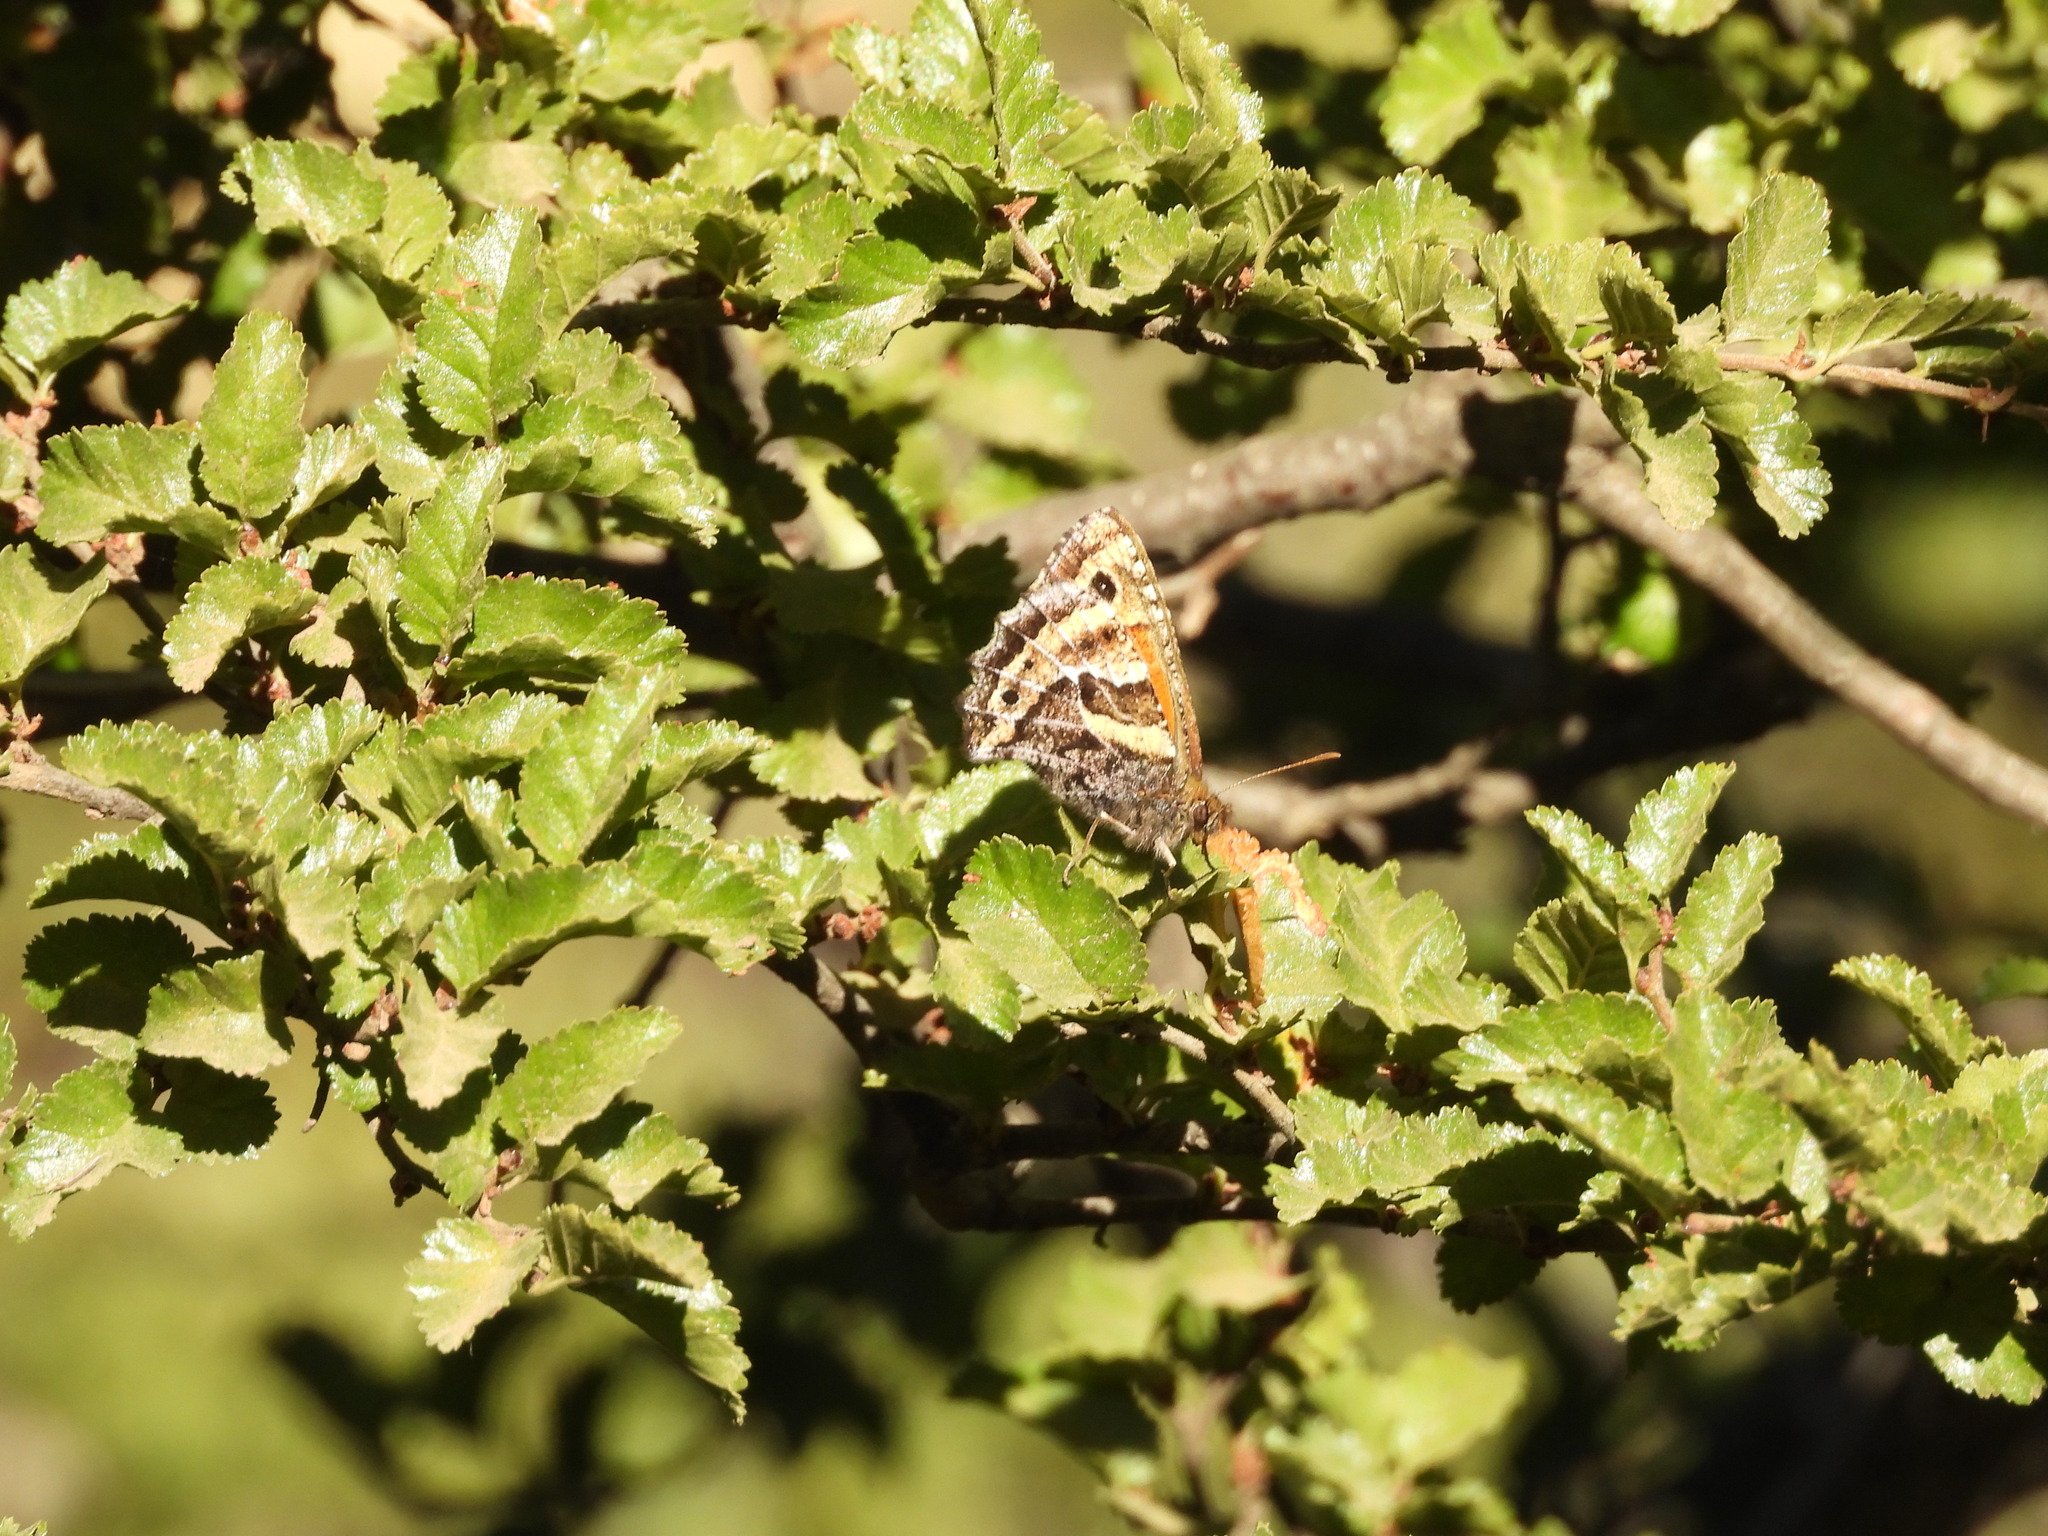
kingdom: Animalia
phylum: Arthropoda
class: Insecta
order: Lepidoptera
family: Nymphalidae
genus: Neomaenas
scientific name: Neomaenas fractifascia
